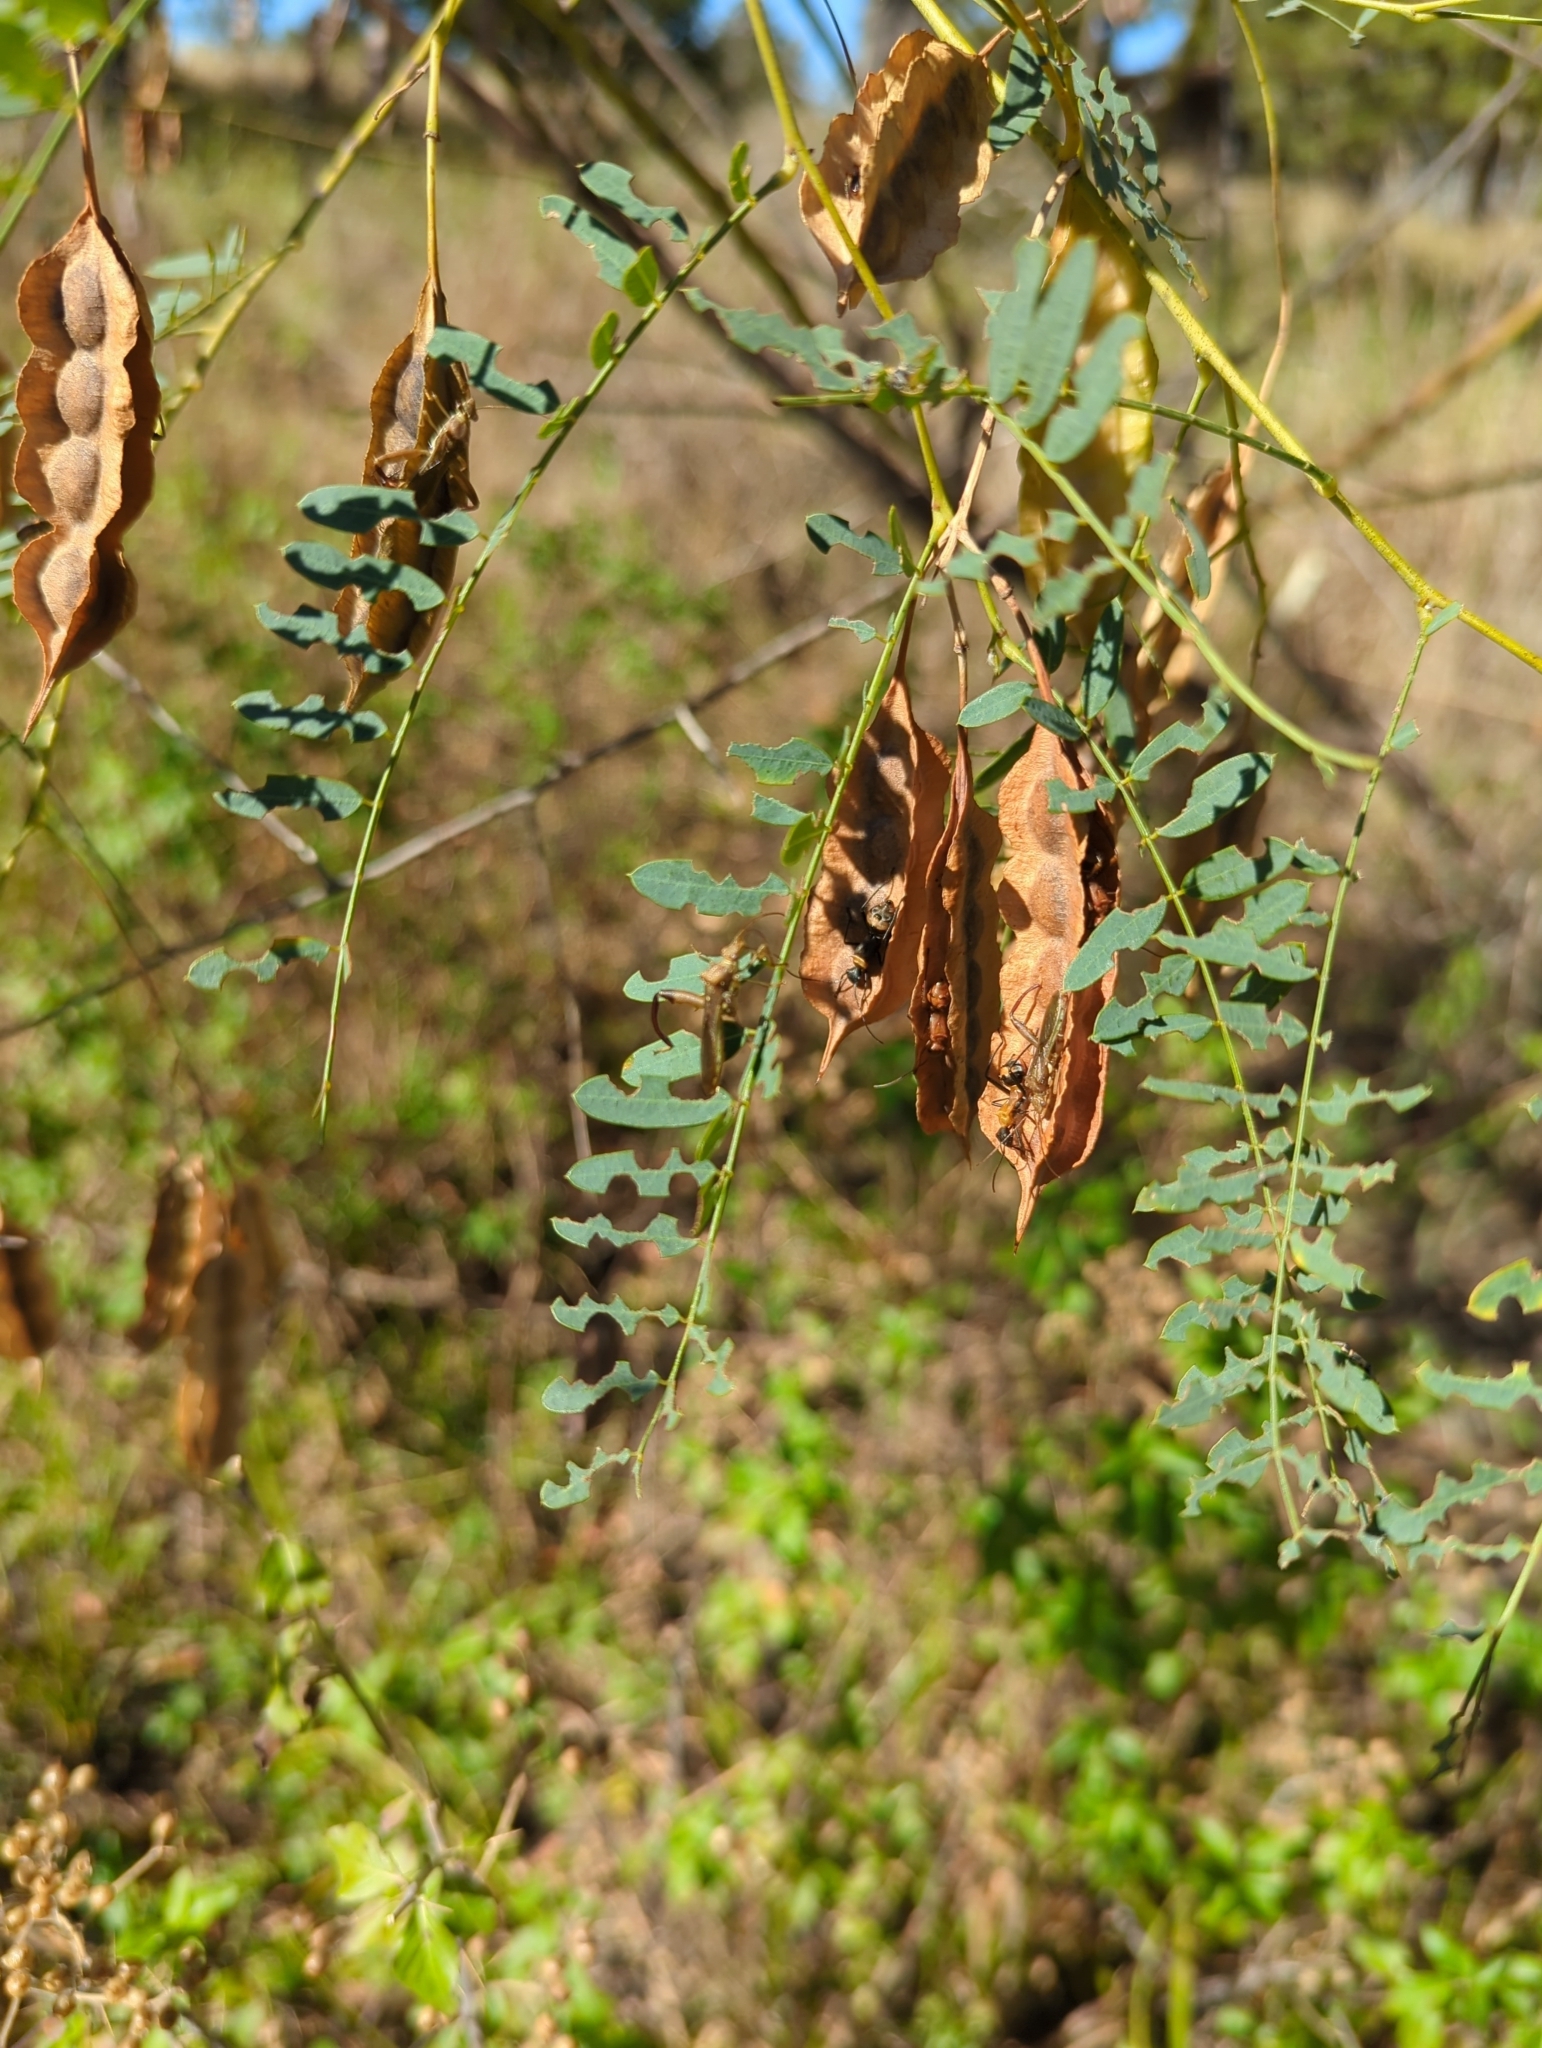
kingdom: Animalia
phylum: Arthropoda
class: Insecta
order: Hemiptera
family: Alydidae
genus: Hyalymenus
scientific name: Hyalymenus tarsatus
